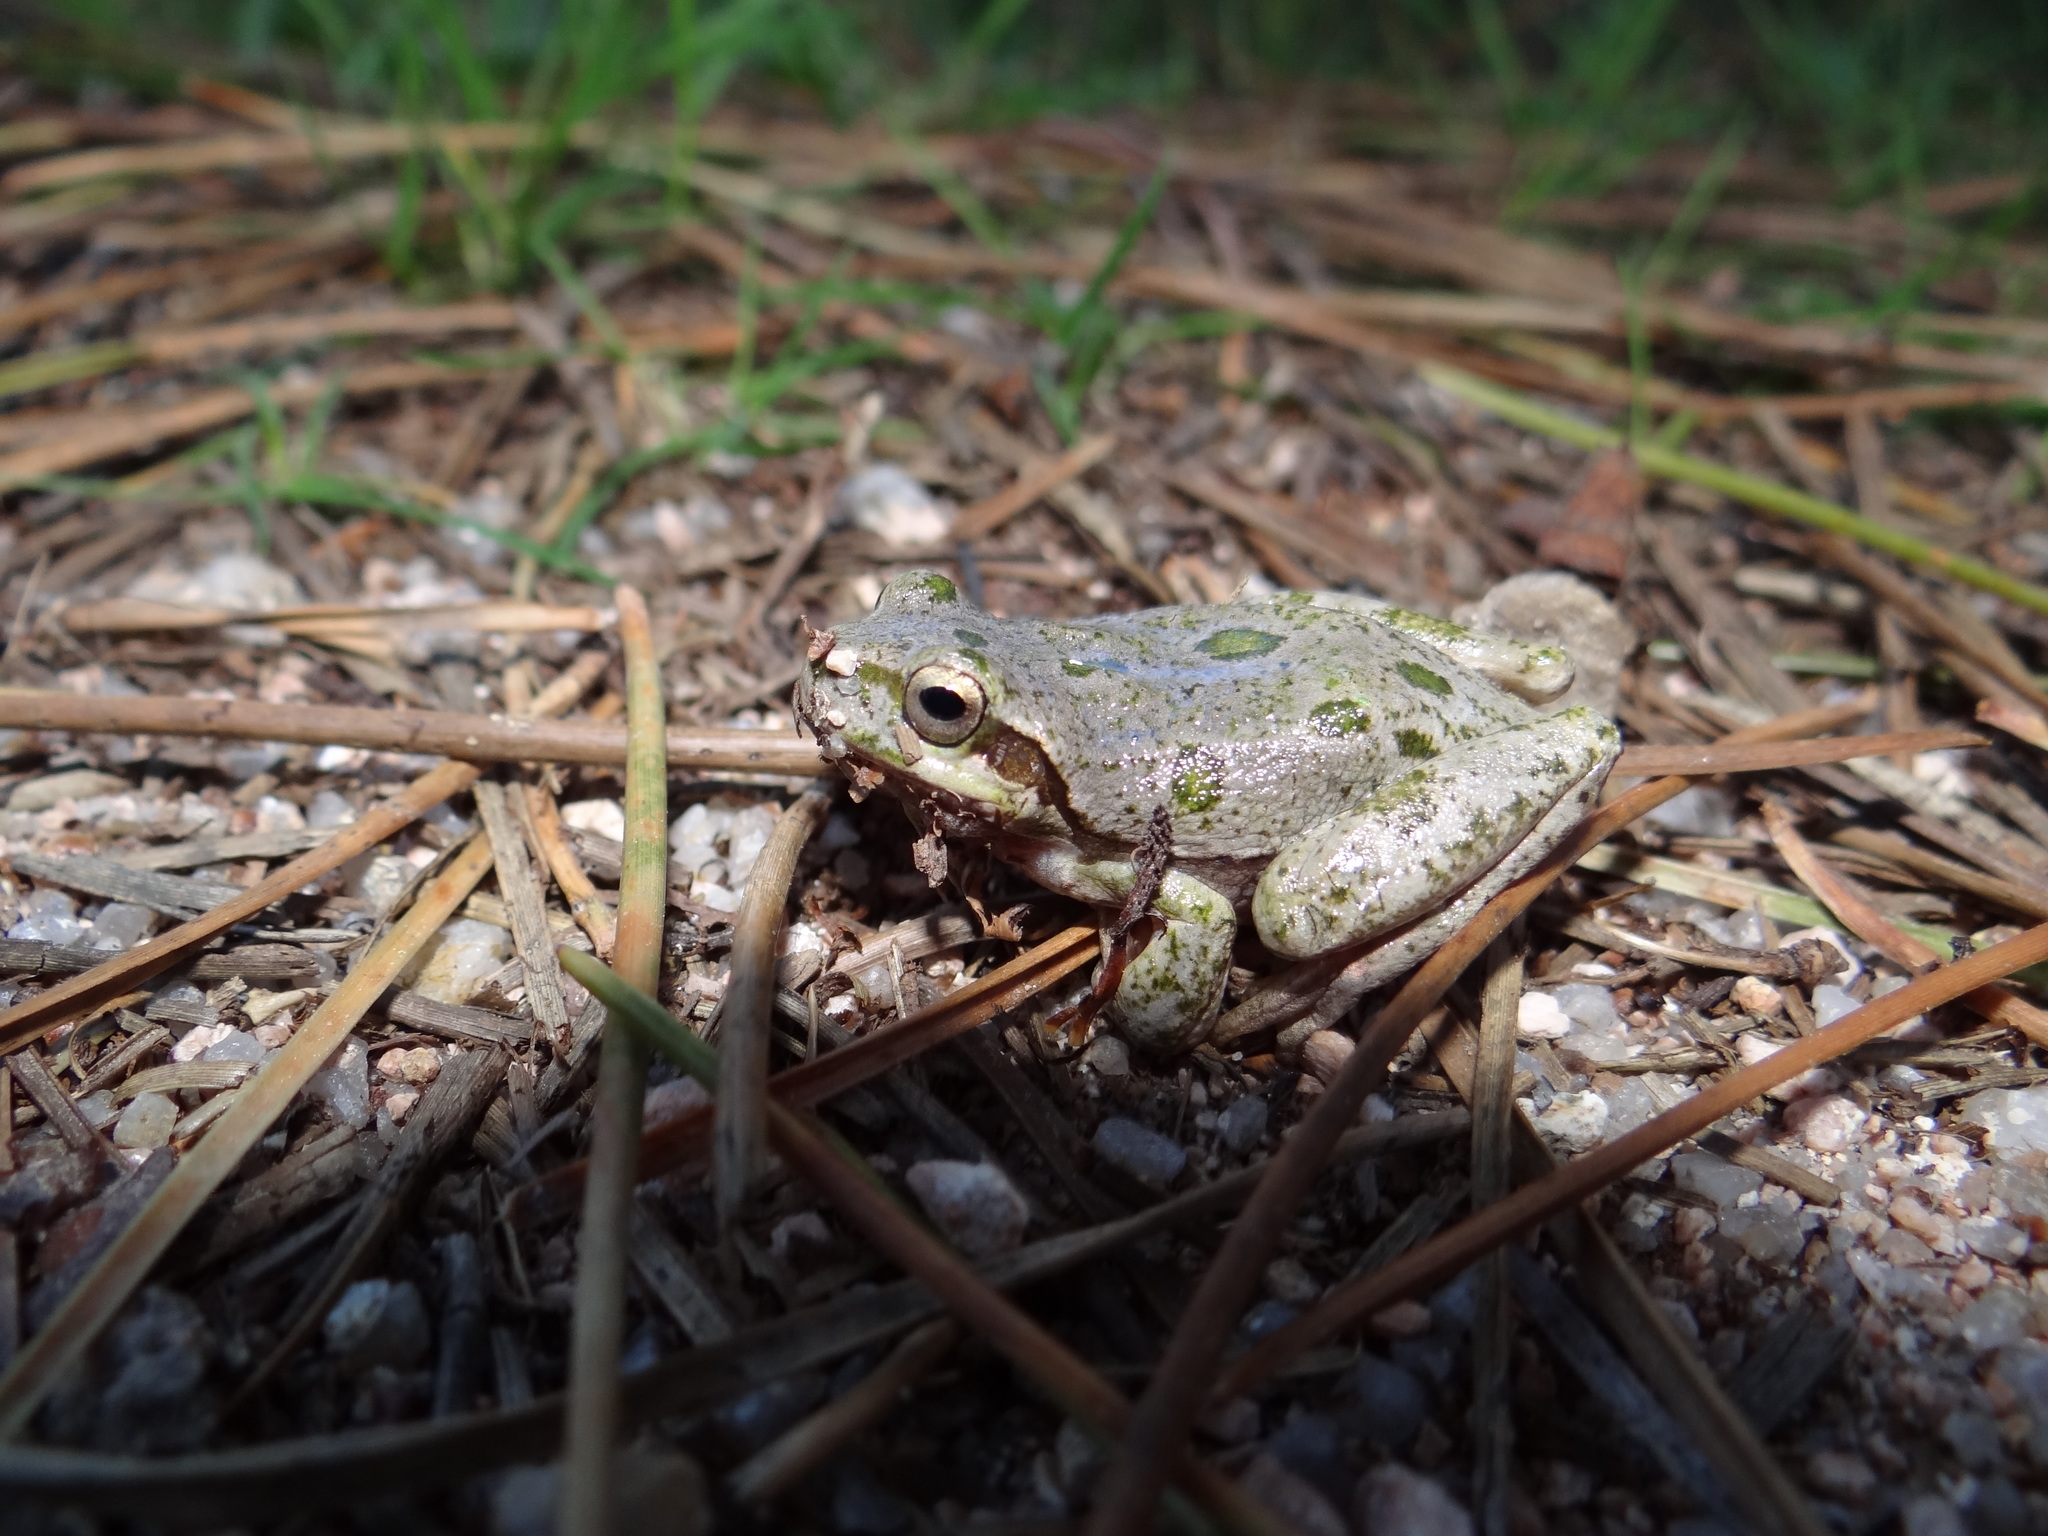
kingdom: Animalia
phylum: Chordata
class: Amphibia
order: Anura
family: Hylidae
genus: Hyla
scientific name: Hyla sarda
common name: Sardinian tree frog
